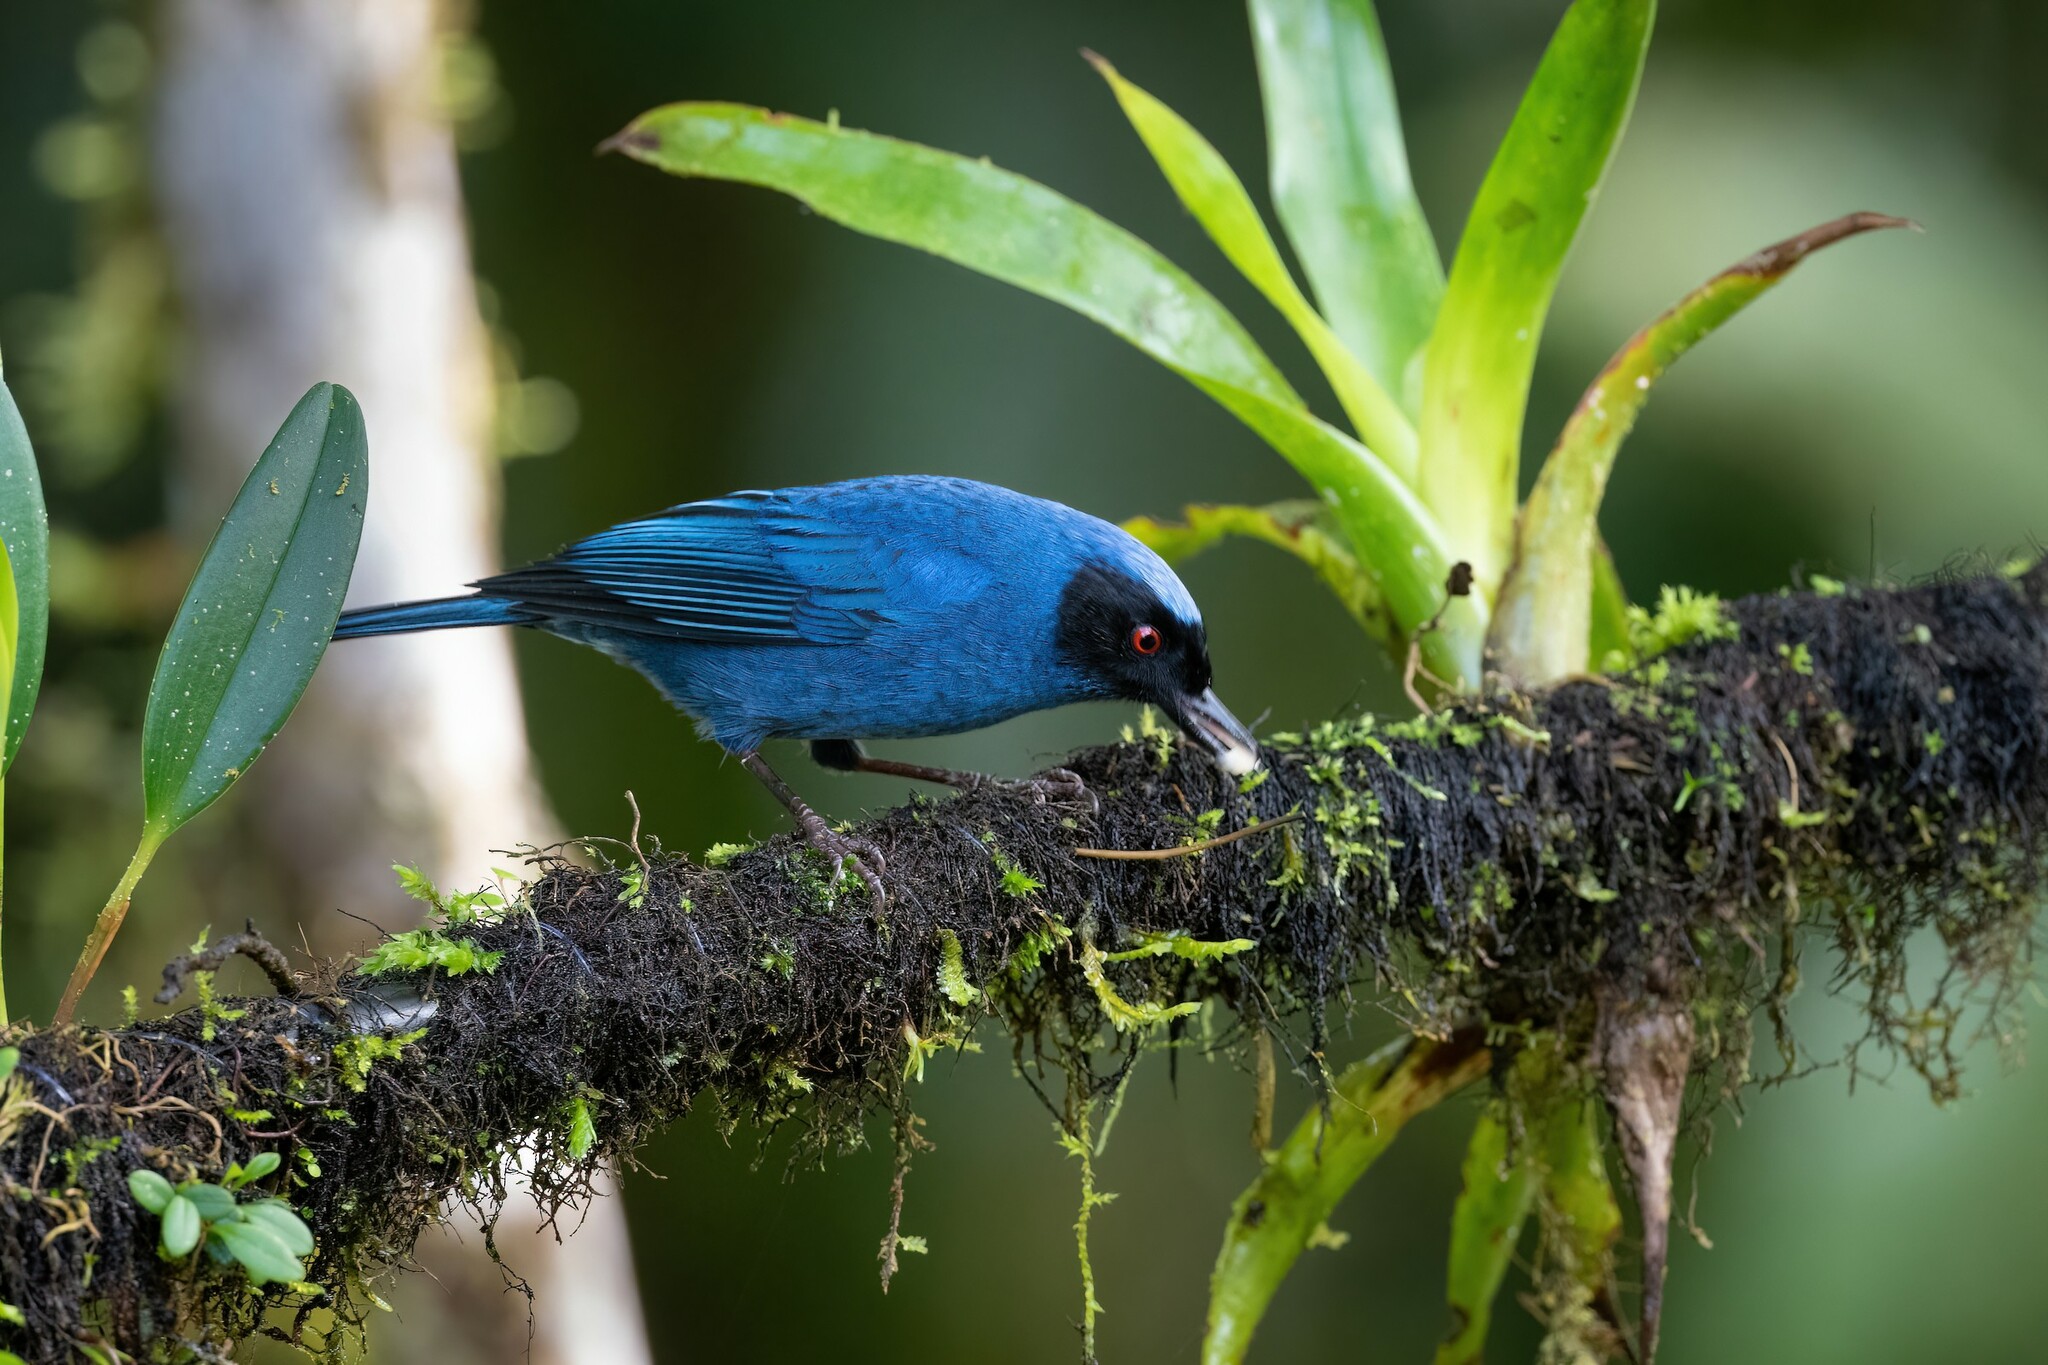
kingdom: Animalia
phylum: Chordata
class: Aves
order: Passeriformes
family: Thraupidae
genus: Diglossa
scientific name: Diglossa cyanea
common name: Masked flowerpiercer
